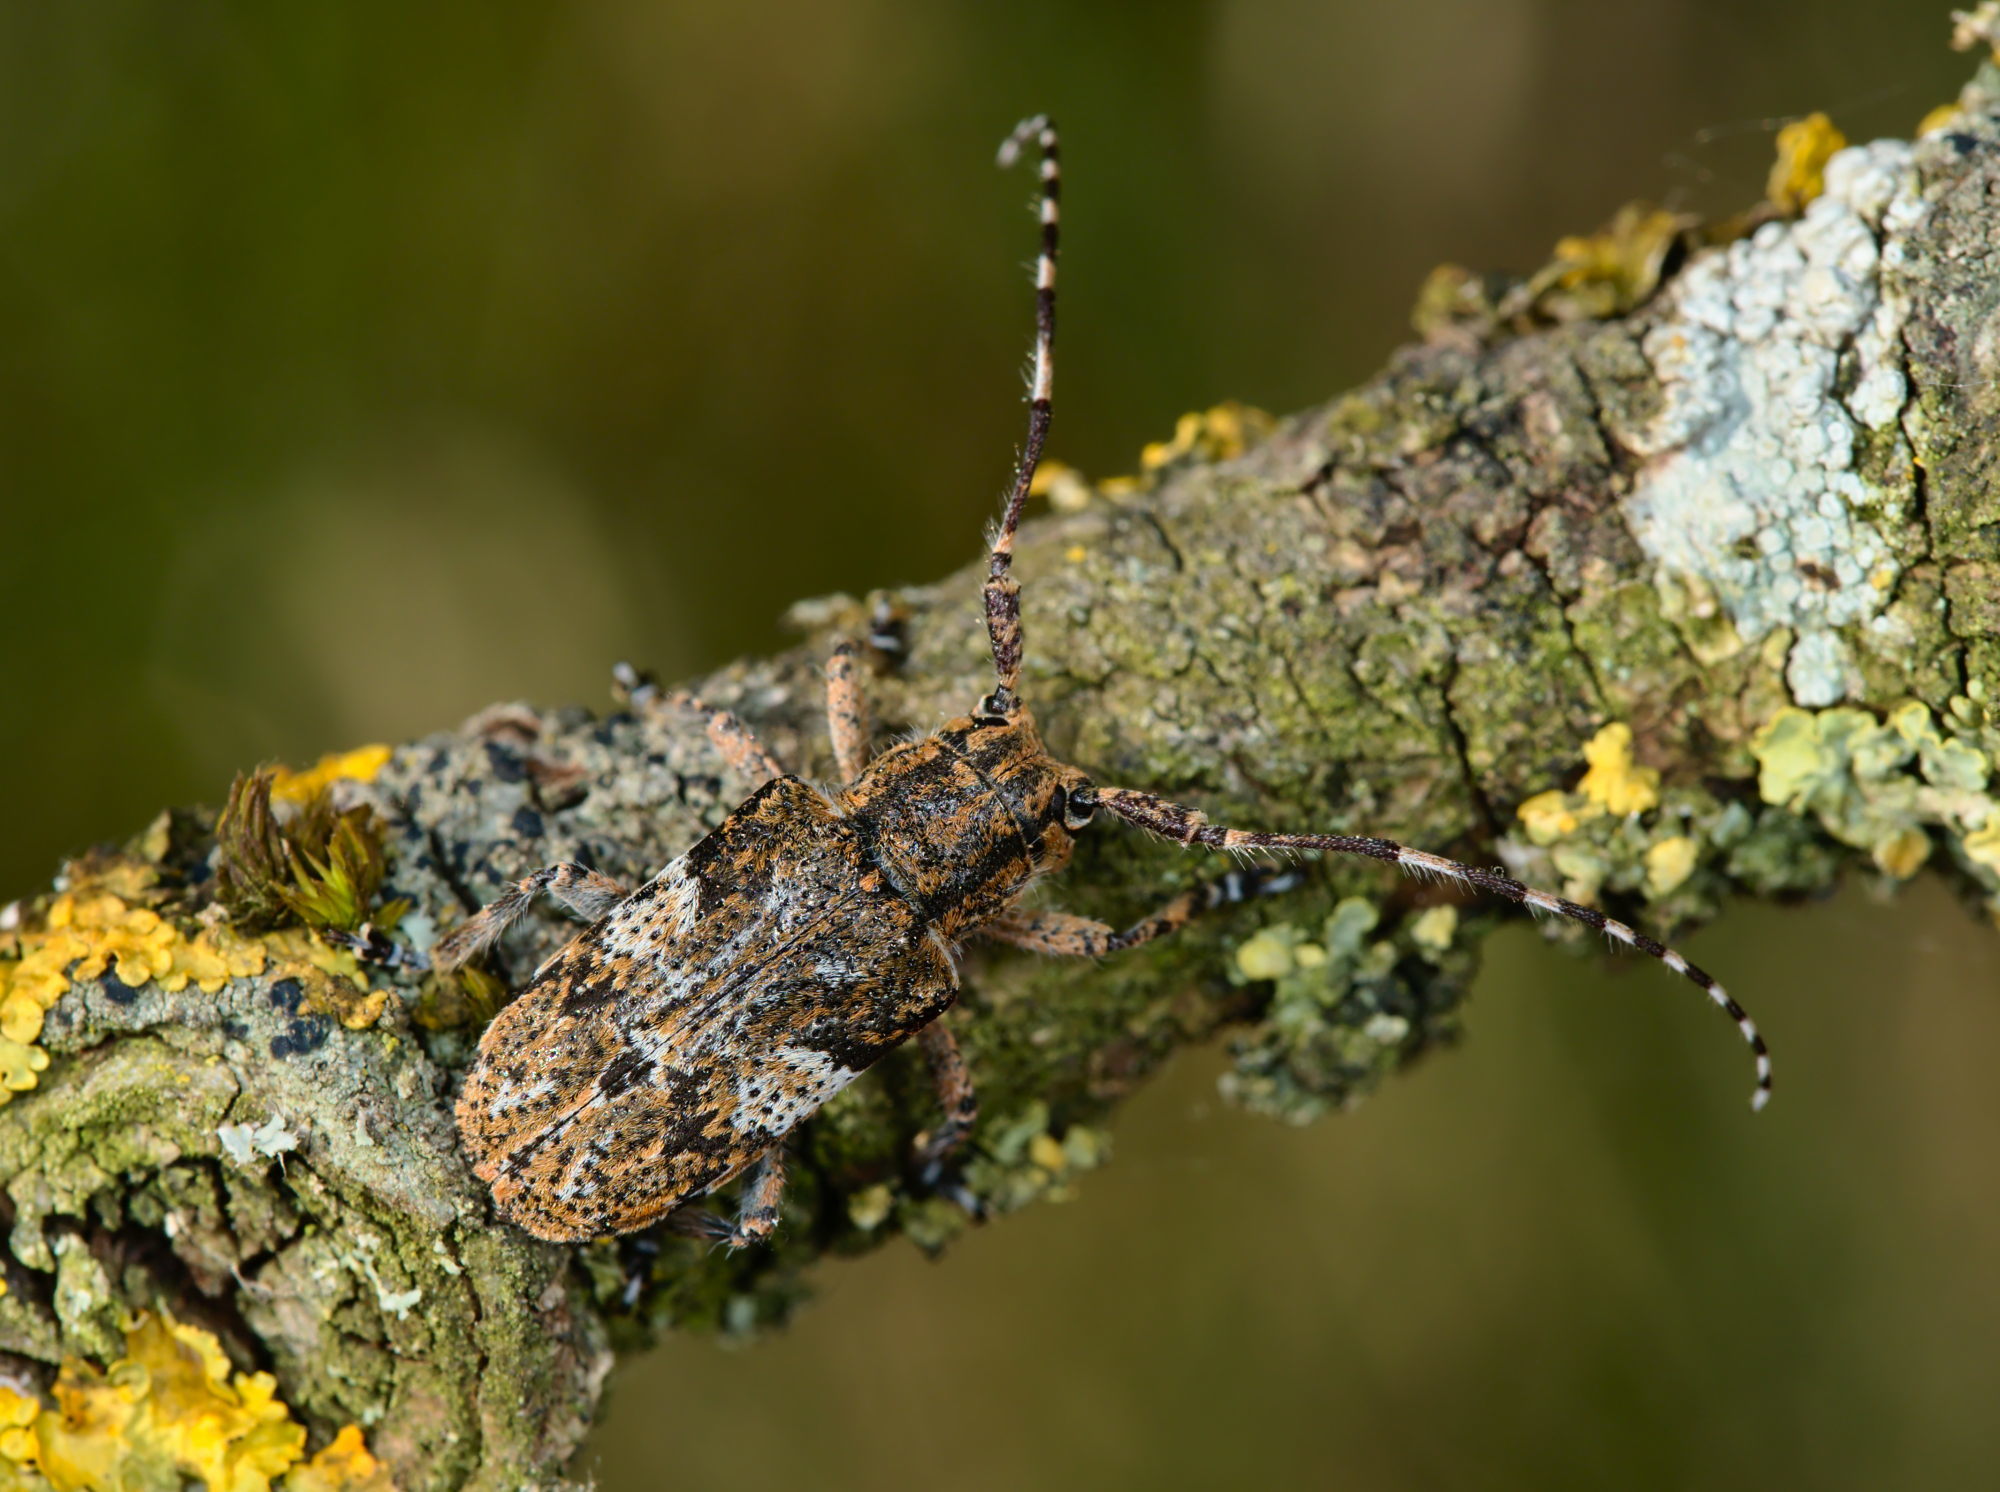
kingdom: Animalia
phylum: Arthropoda
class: Insecta
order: Coleoptera
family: Cerambycidae
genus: Mesosa
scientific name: Mesosa nebulosa
